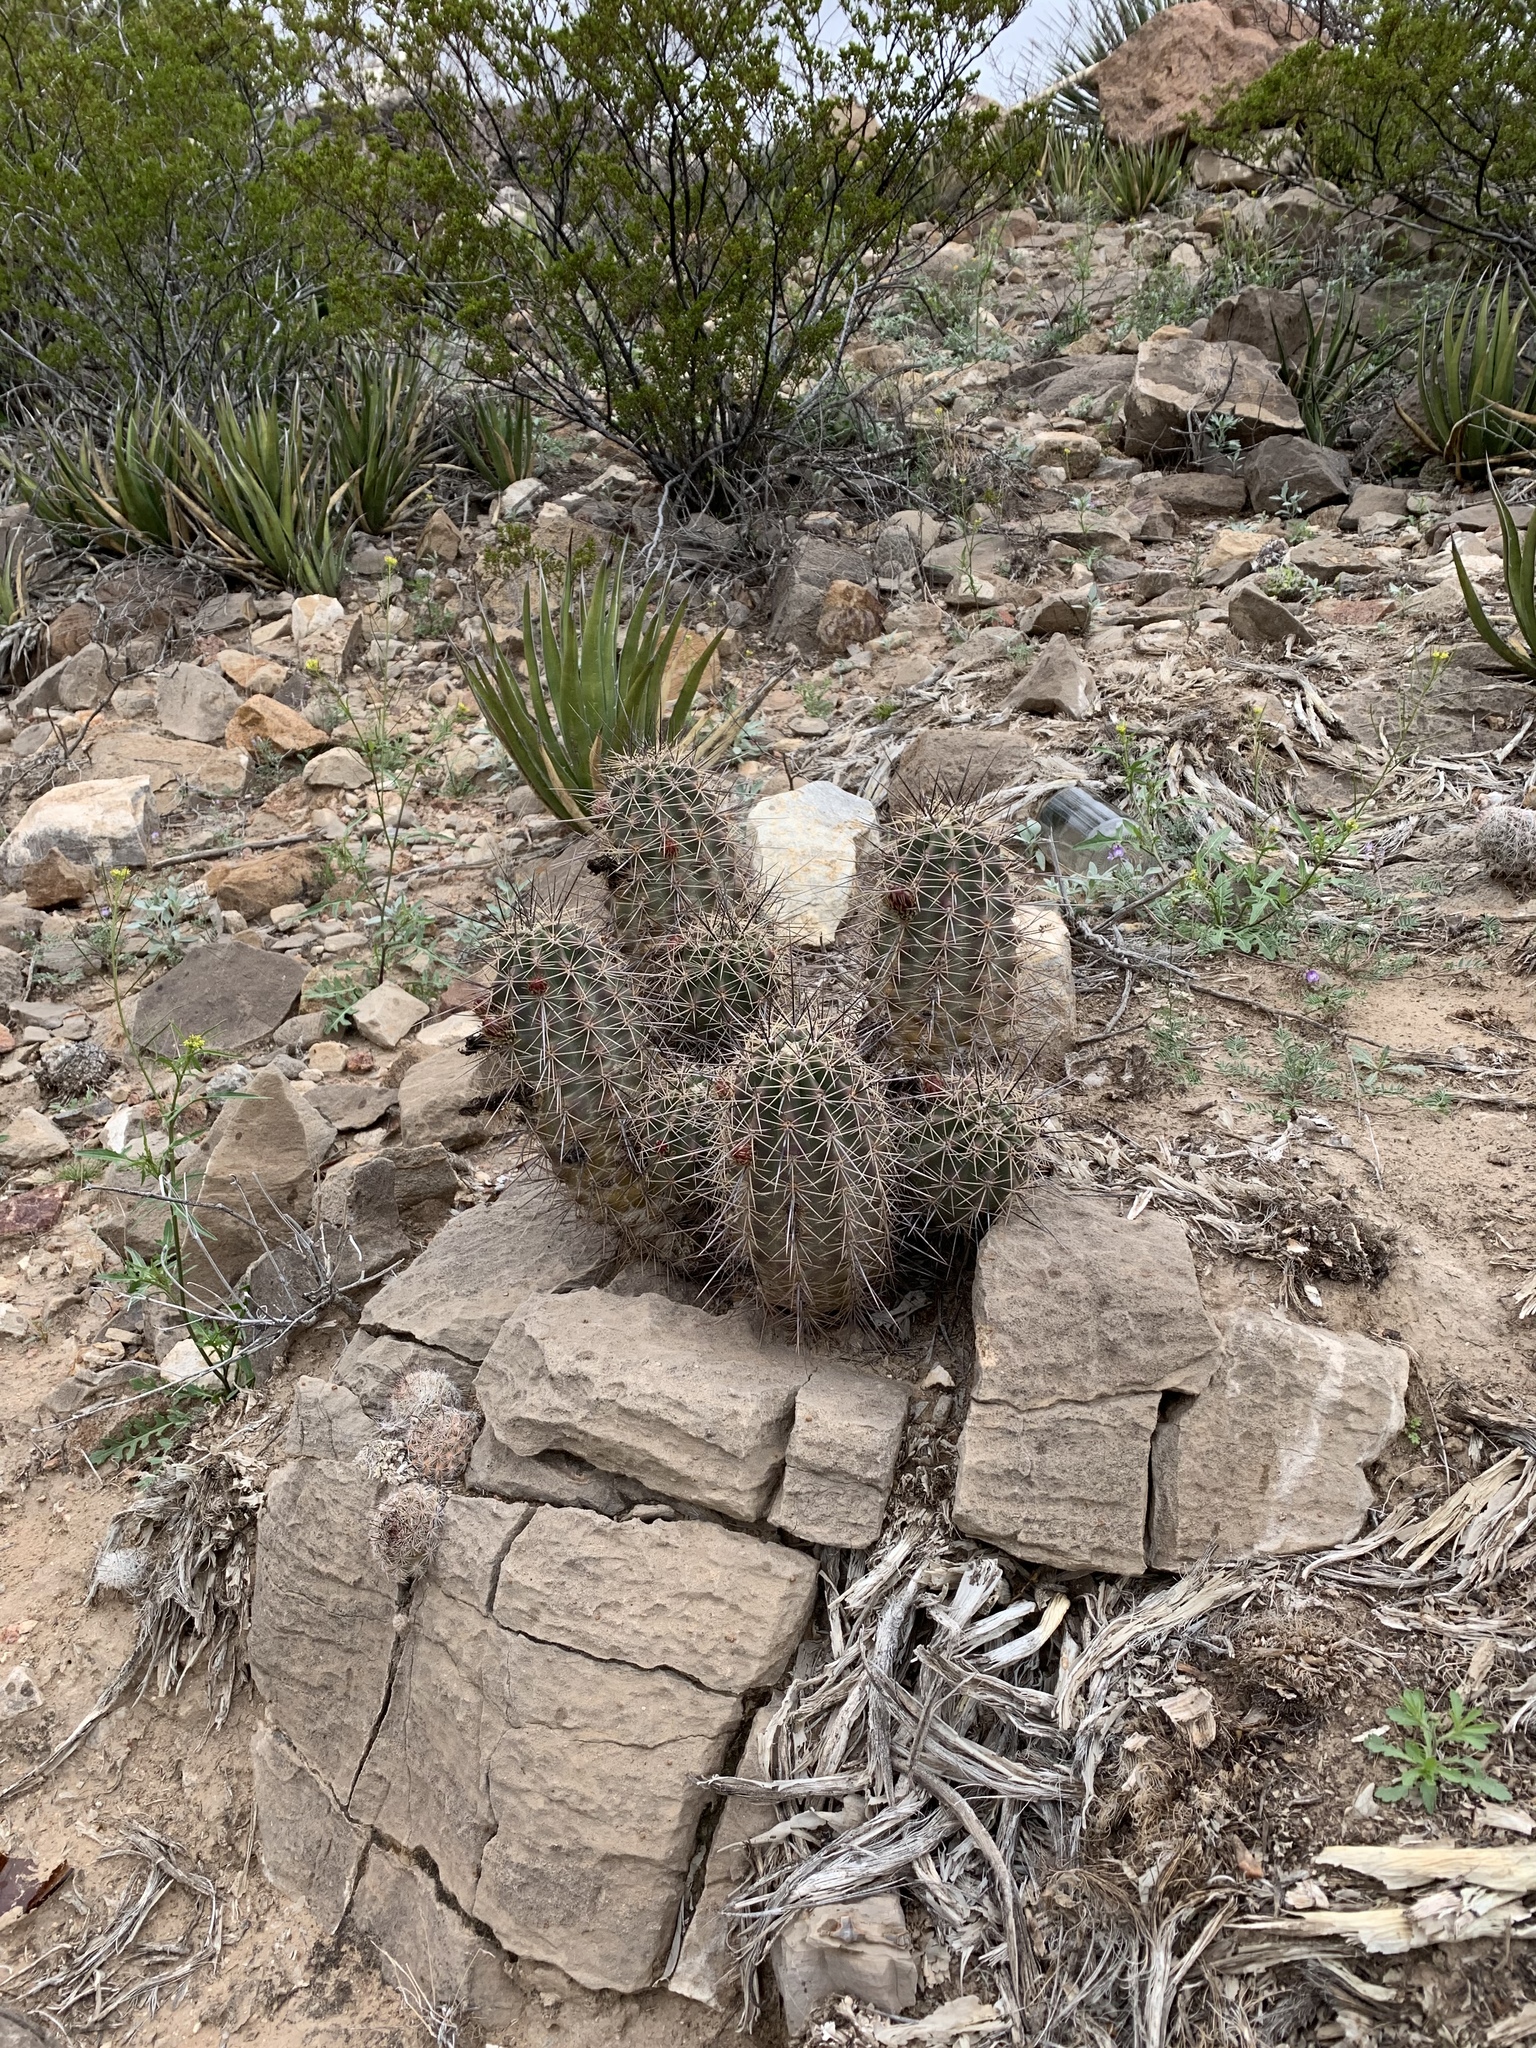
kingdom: Plantae
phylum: Tracheophyta
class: Magnoliopsida
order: Caryophyllales
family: Cactaceae
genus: Echinocereus
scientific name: Echinocereus coccineus
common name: Scarlet hedgehog cactus
